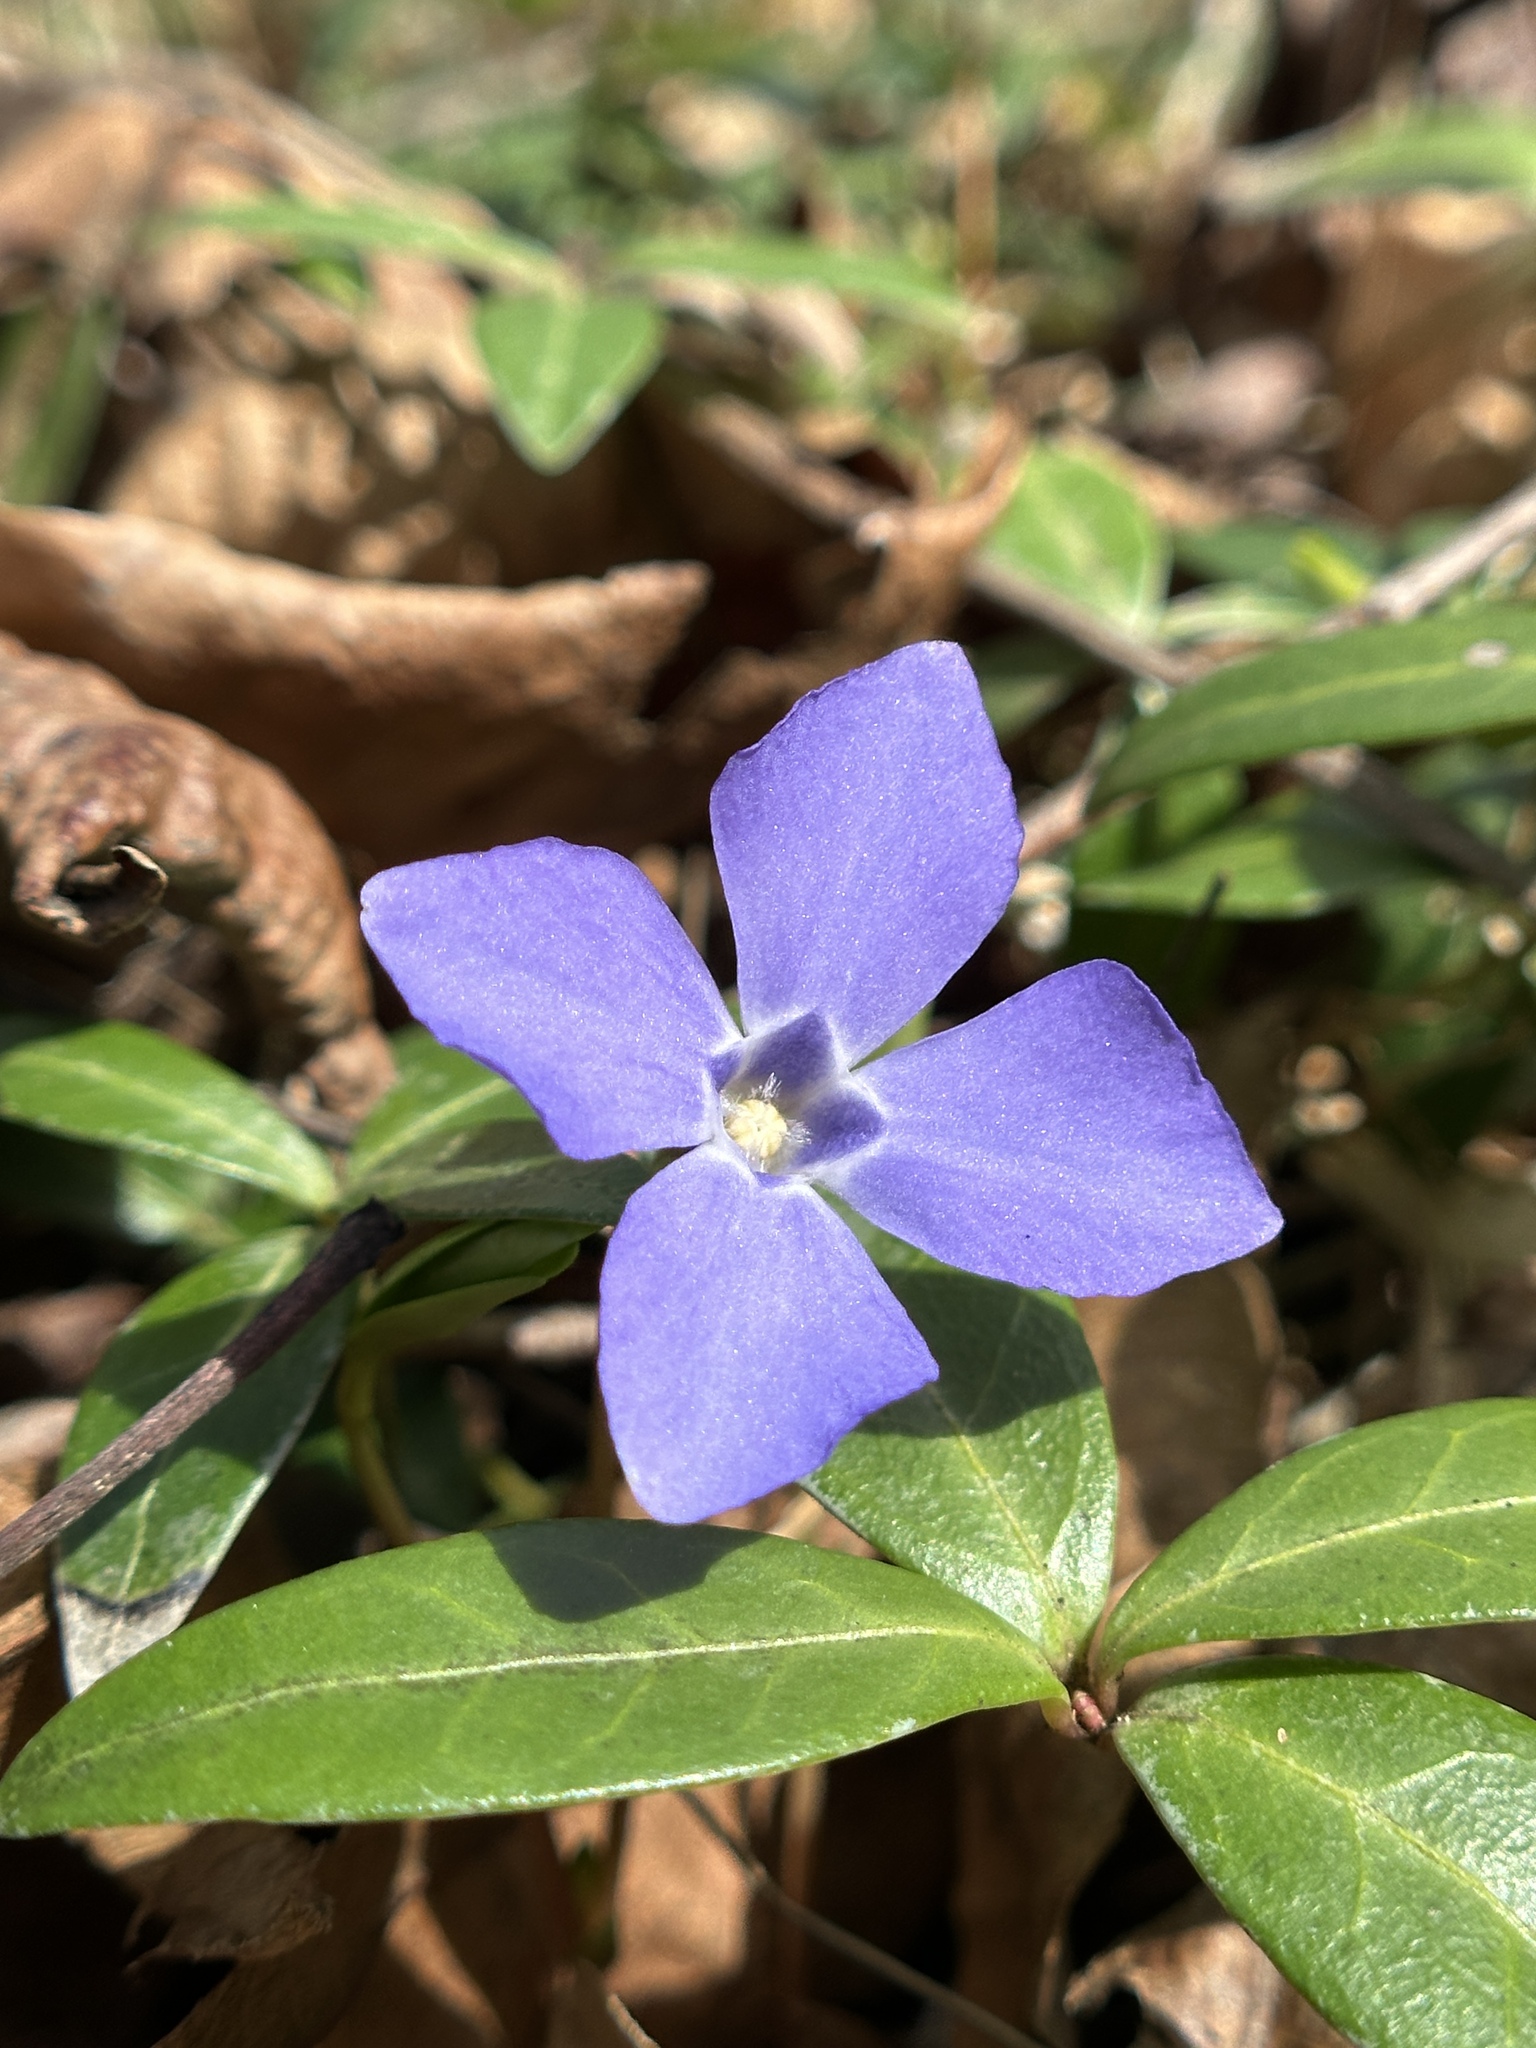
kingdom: Plantae
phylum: Tracheophyta
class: Magnoliopsida
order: Gentianales
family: Apocynaceae
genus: Vinca
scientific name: Vinca minor
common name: Lesser periwinkle
